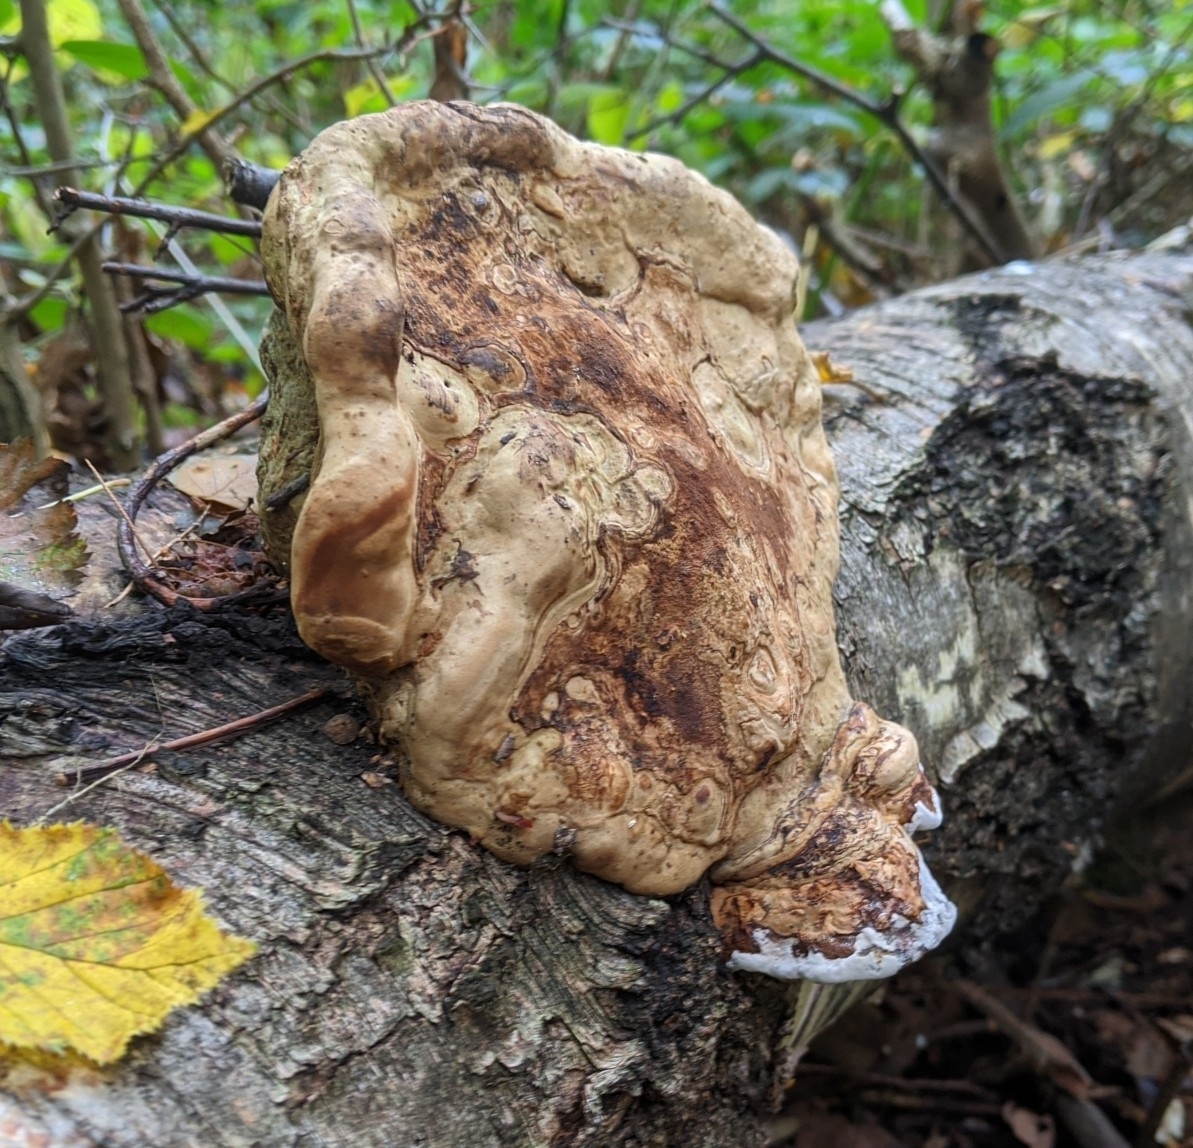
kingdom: Fungi
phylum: Basidiomycota
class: Agaricomycetes
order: Polyporales
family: Polyporaceae
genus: Fomes
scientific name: Fomes fomentarius
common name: Hoof fungus
